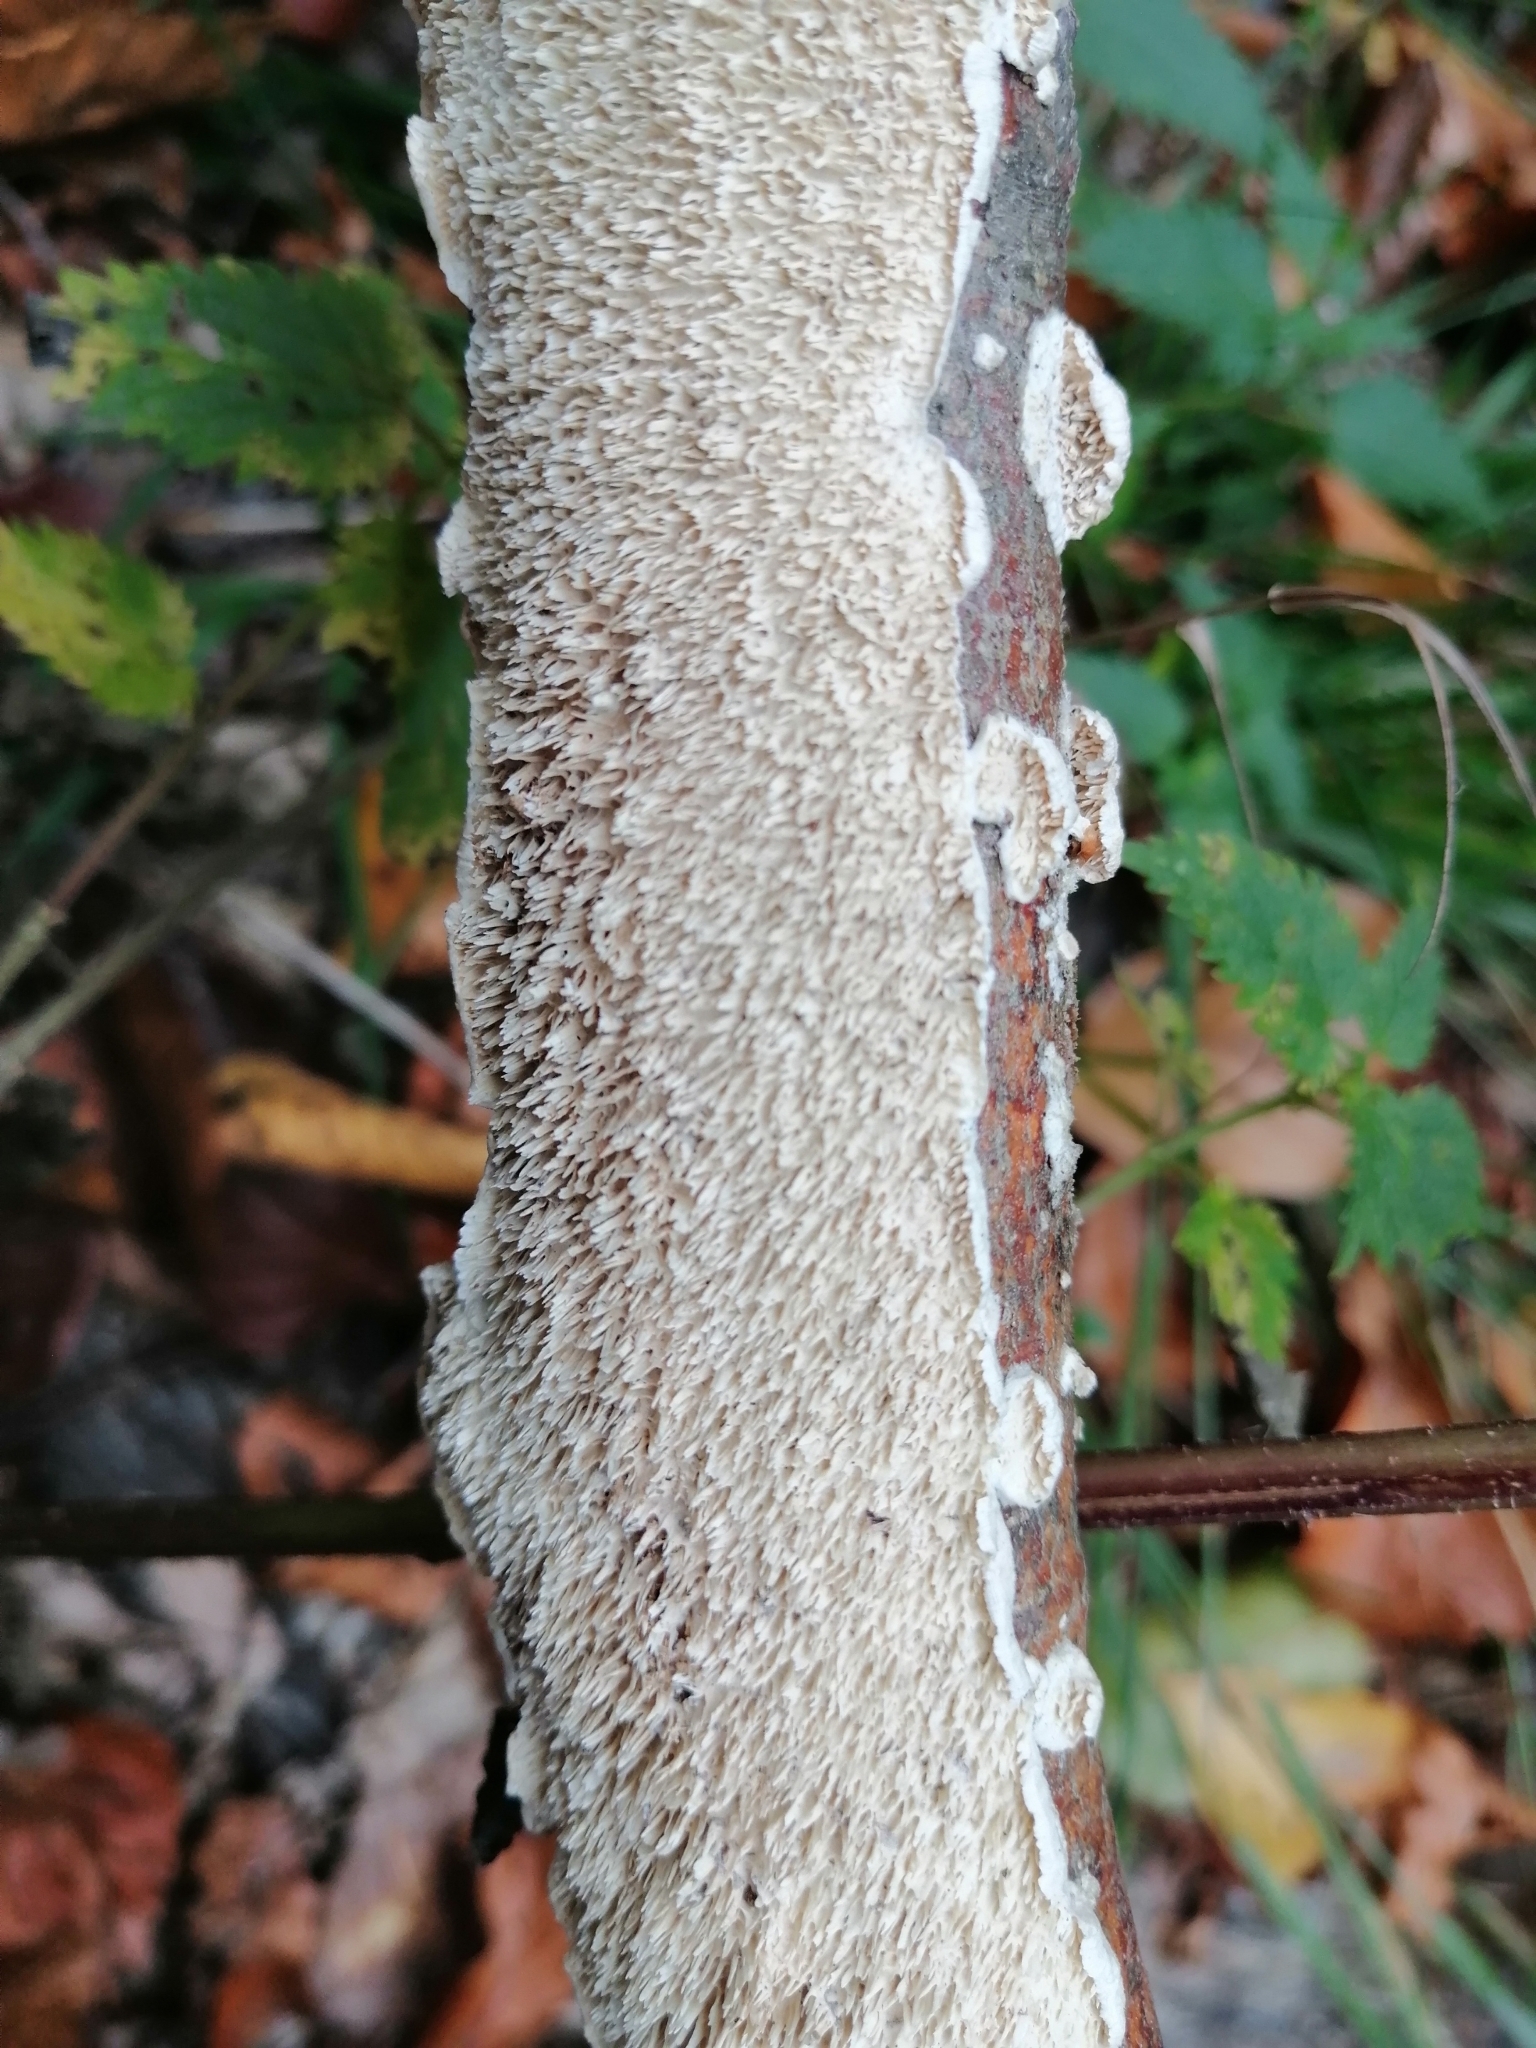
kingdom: Fungi
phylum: Basidiomycota
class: Agaricomycetes
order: Polyporales
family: Irpicaceae
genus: Irpex
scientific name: Irpex lacteus
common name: Milk-white toothed polypore
